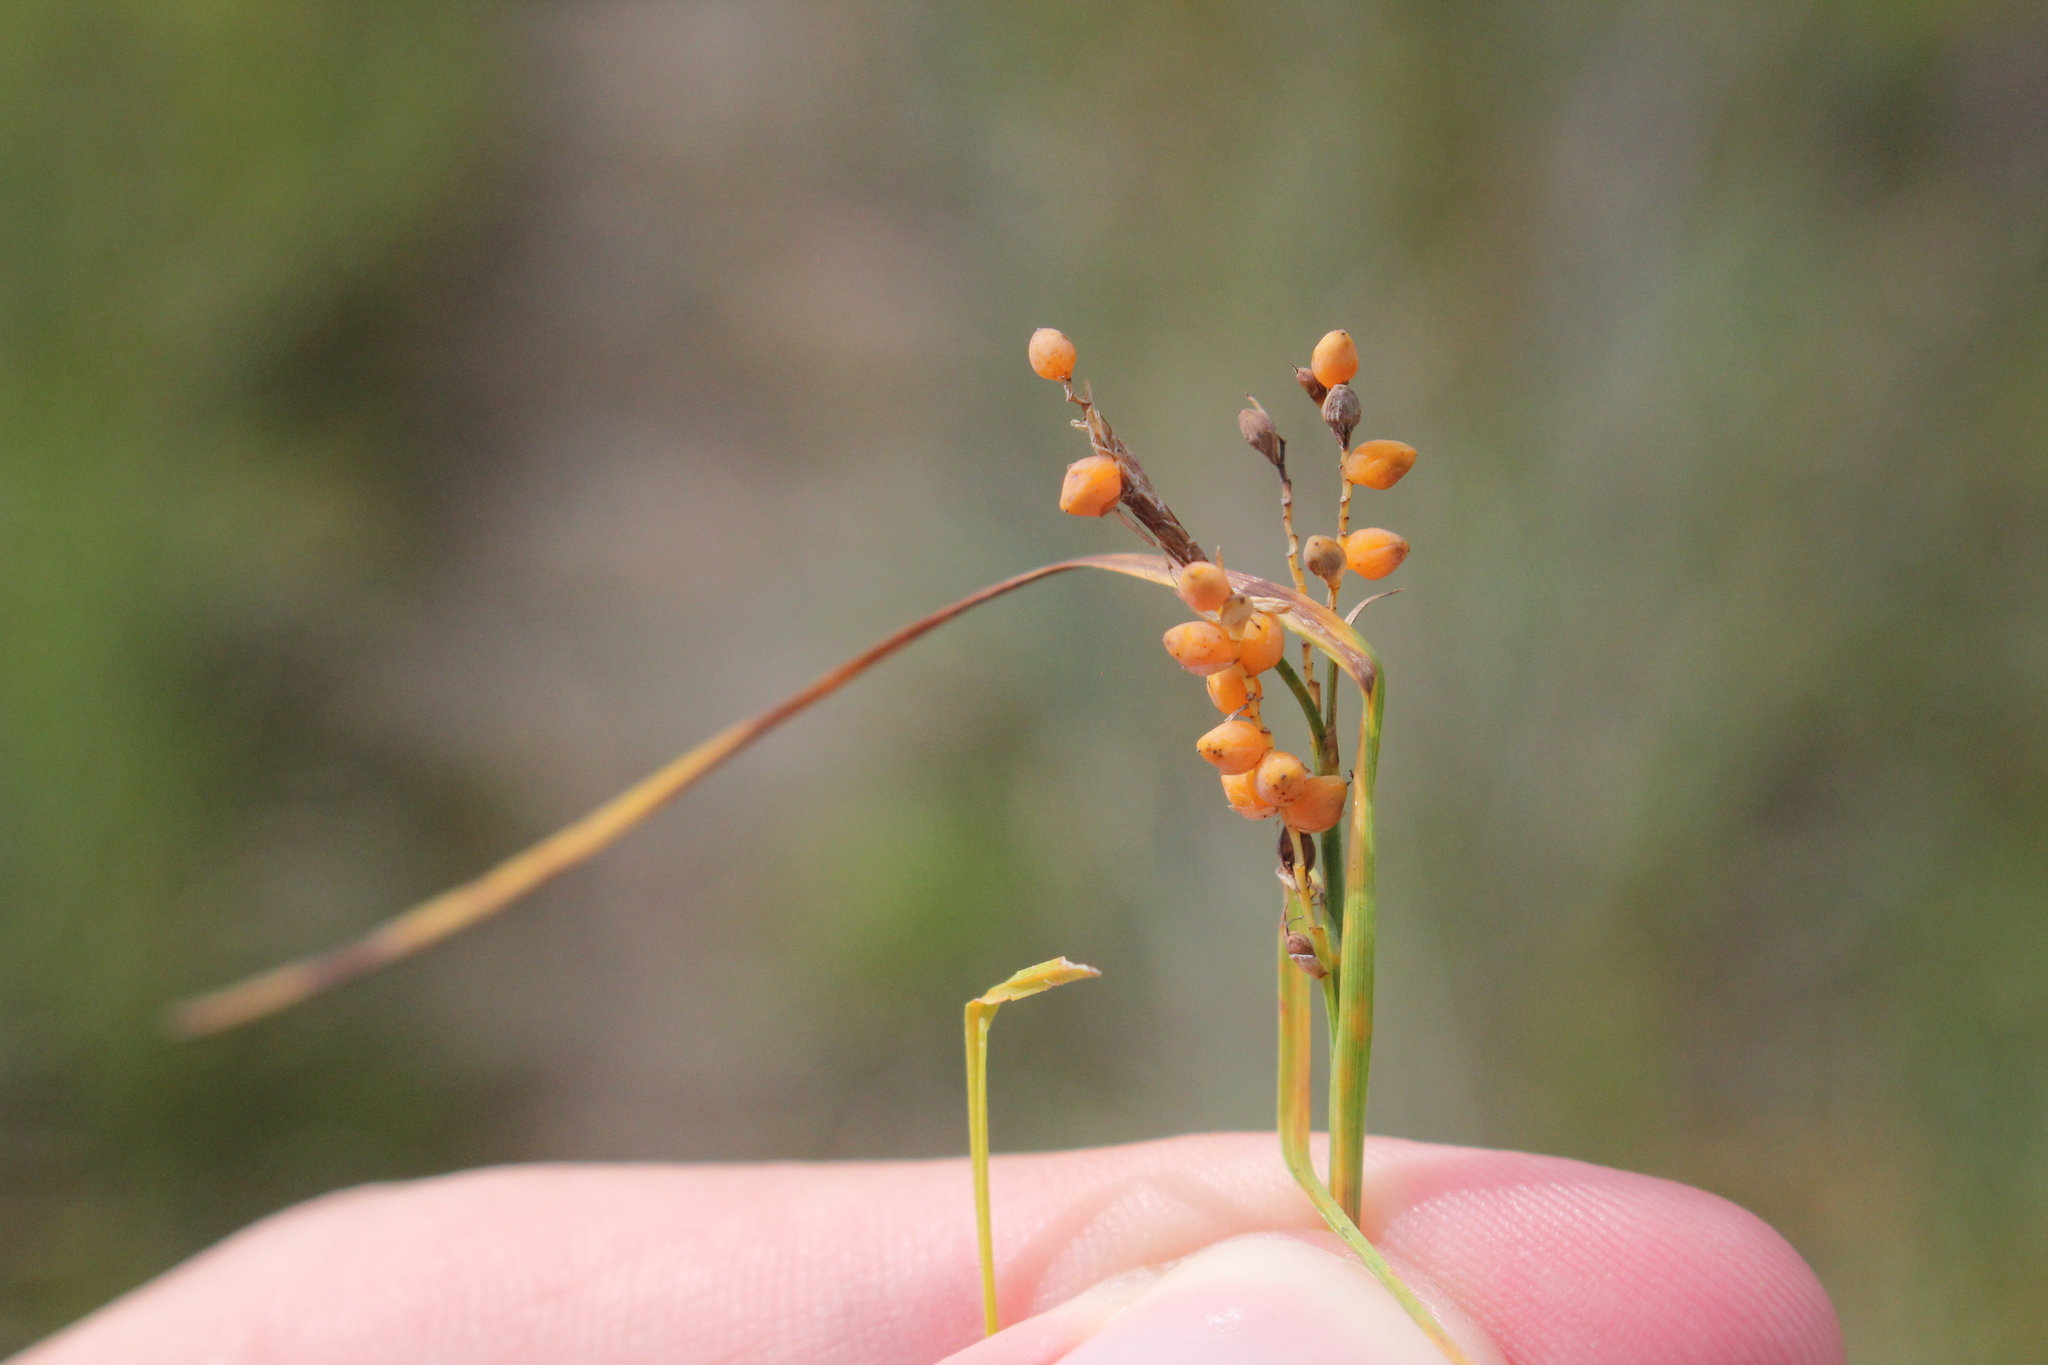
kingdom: Plantae
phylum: Tracheophyta
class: Liliopsida
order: Poales
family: Cyperaceae
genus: Carex
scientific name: Carex aurea
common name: Golden sedge
